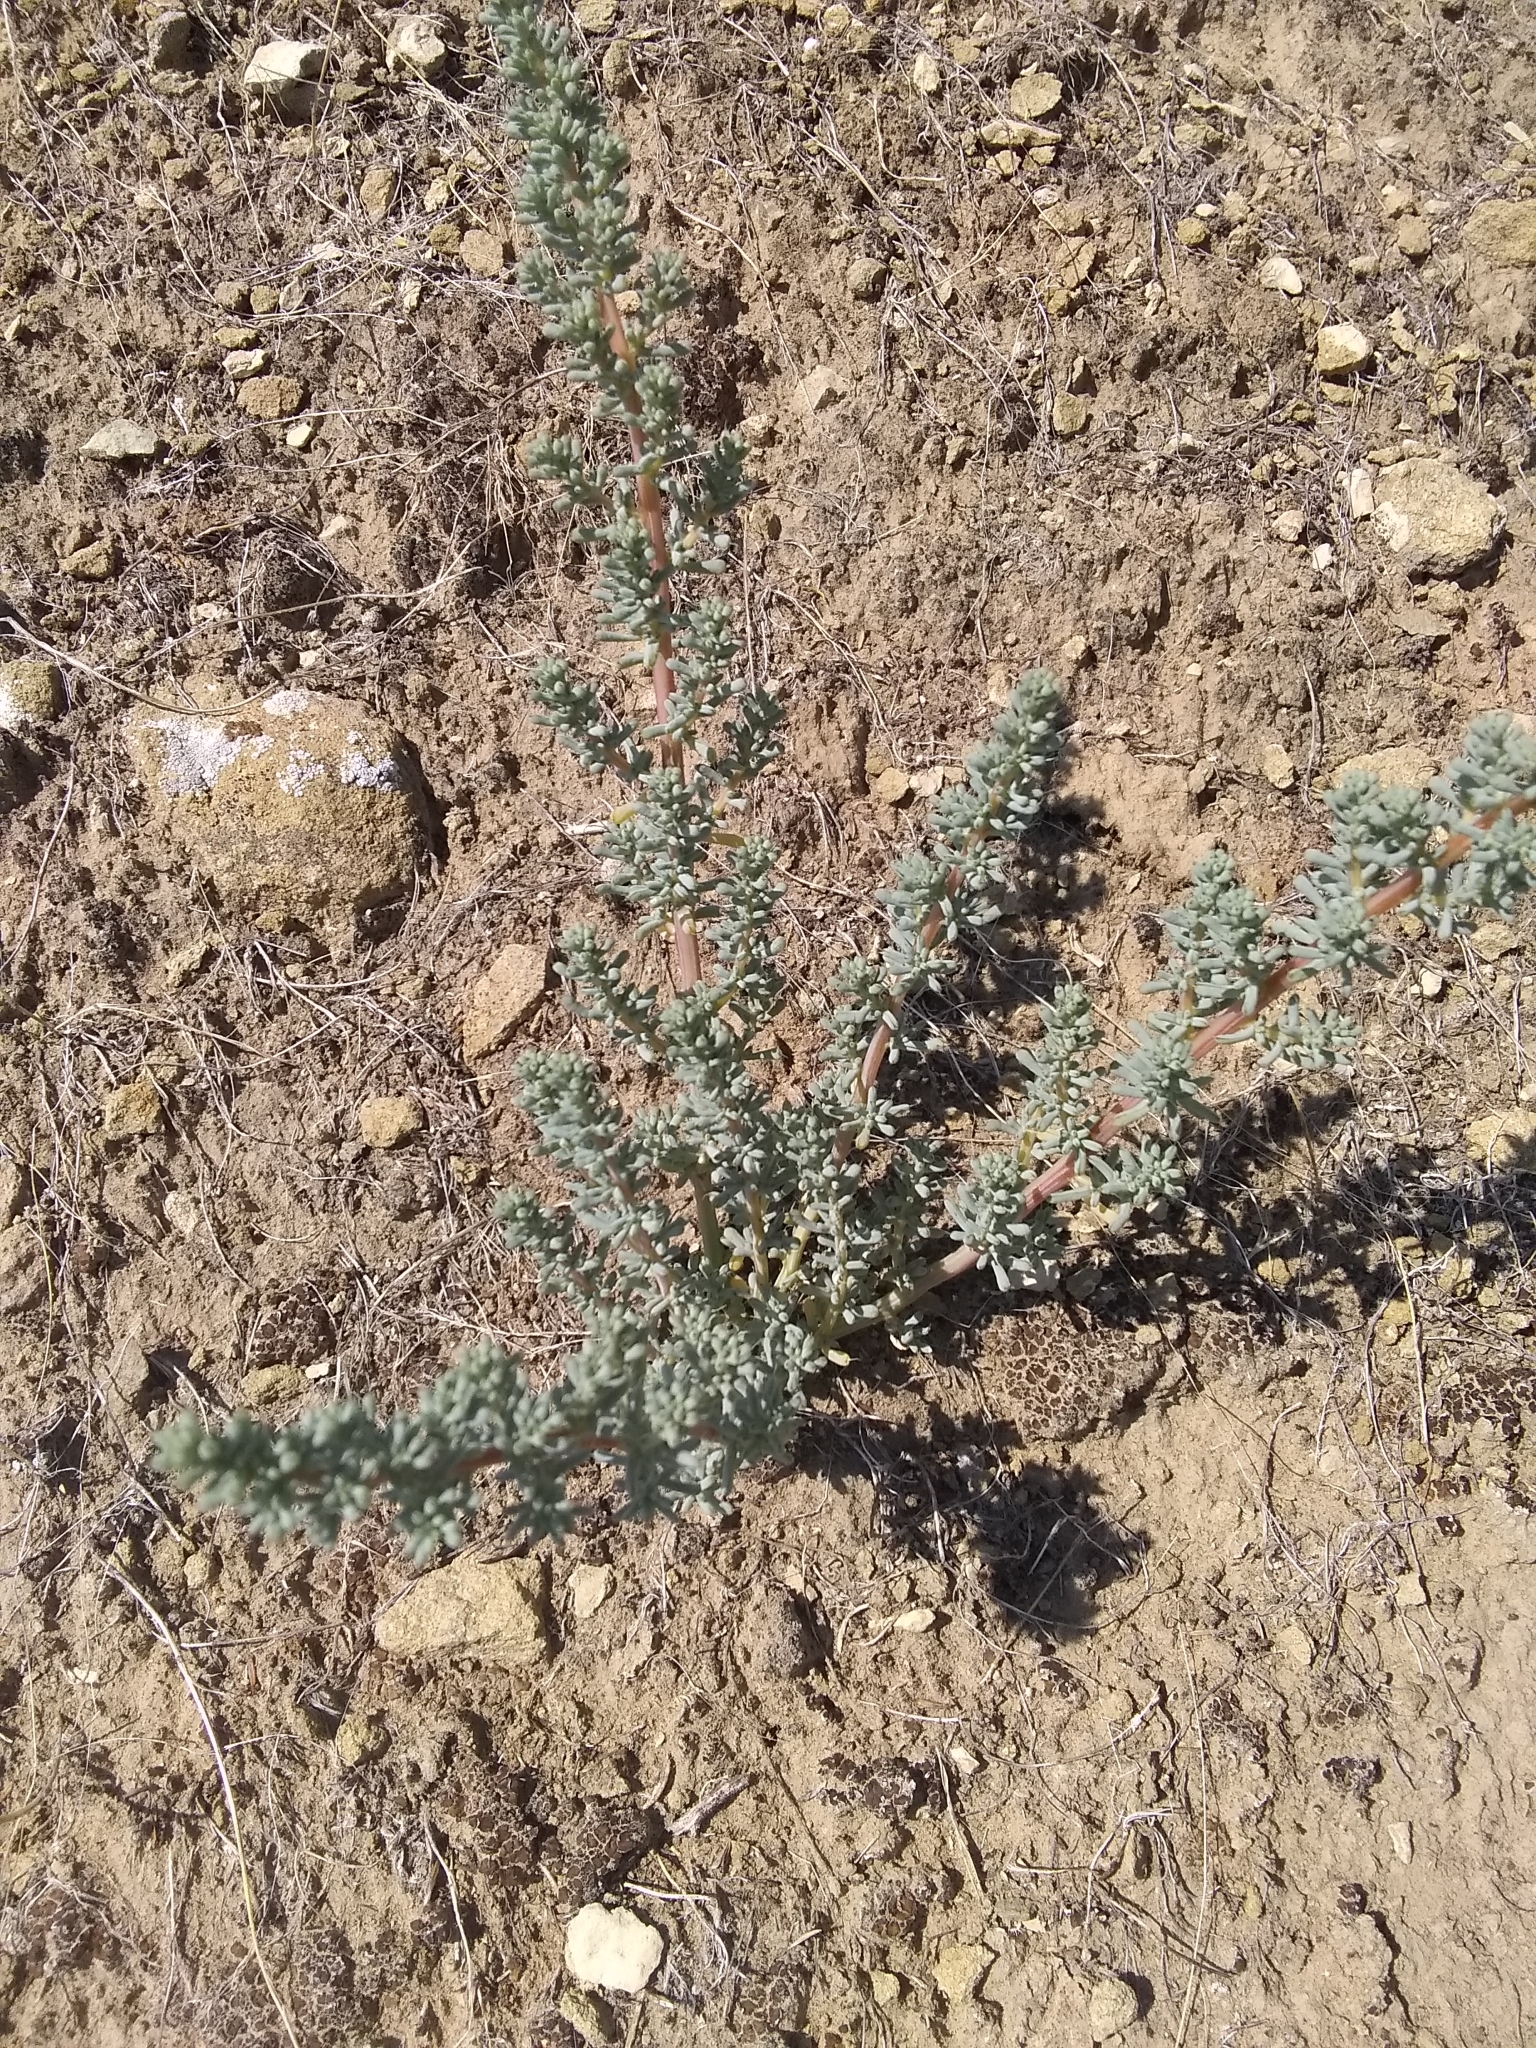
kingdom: Plantae
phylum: Tracheophyta
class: Magnoliopsida
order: Caryophyllales
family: Amaranthaceae
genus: Halogeton
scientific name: Halogeton glomeratus
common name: Saltlover
